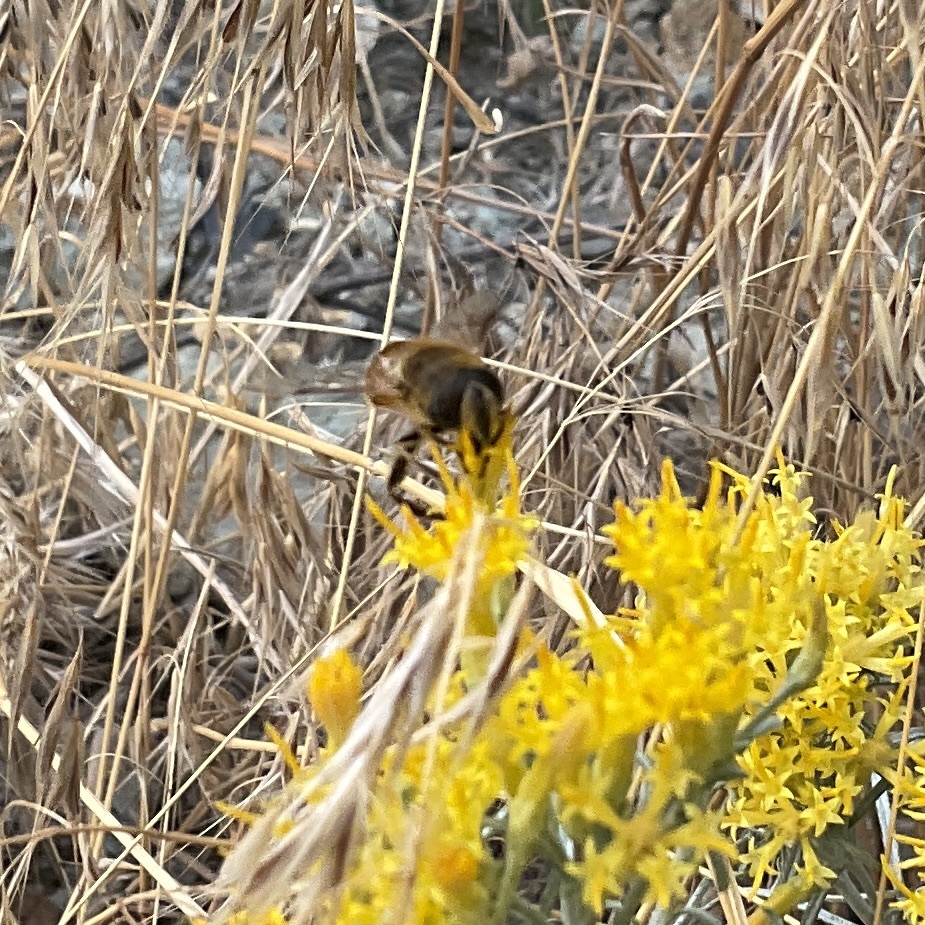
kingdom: Animalia
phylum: Arthropoda
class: Insecta
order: Diptera
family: Syrphidae
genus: Eristalis
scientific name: Eristalis tenax
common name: Drone fly
